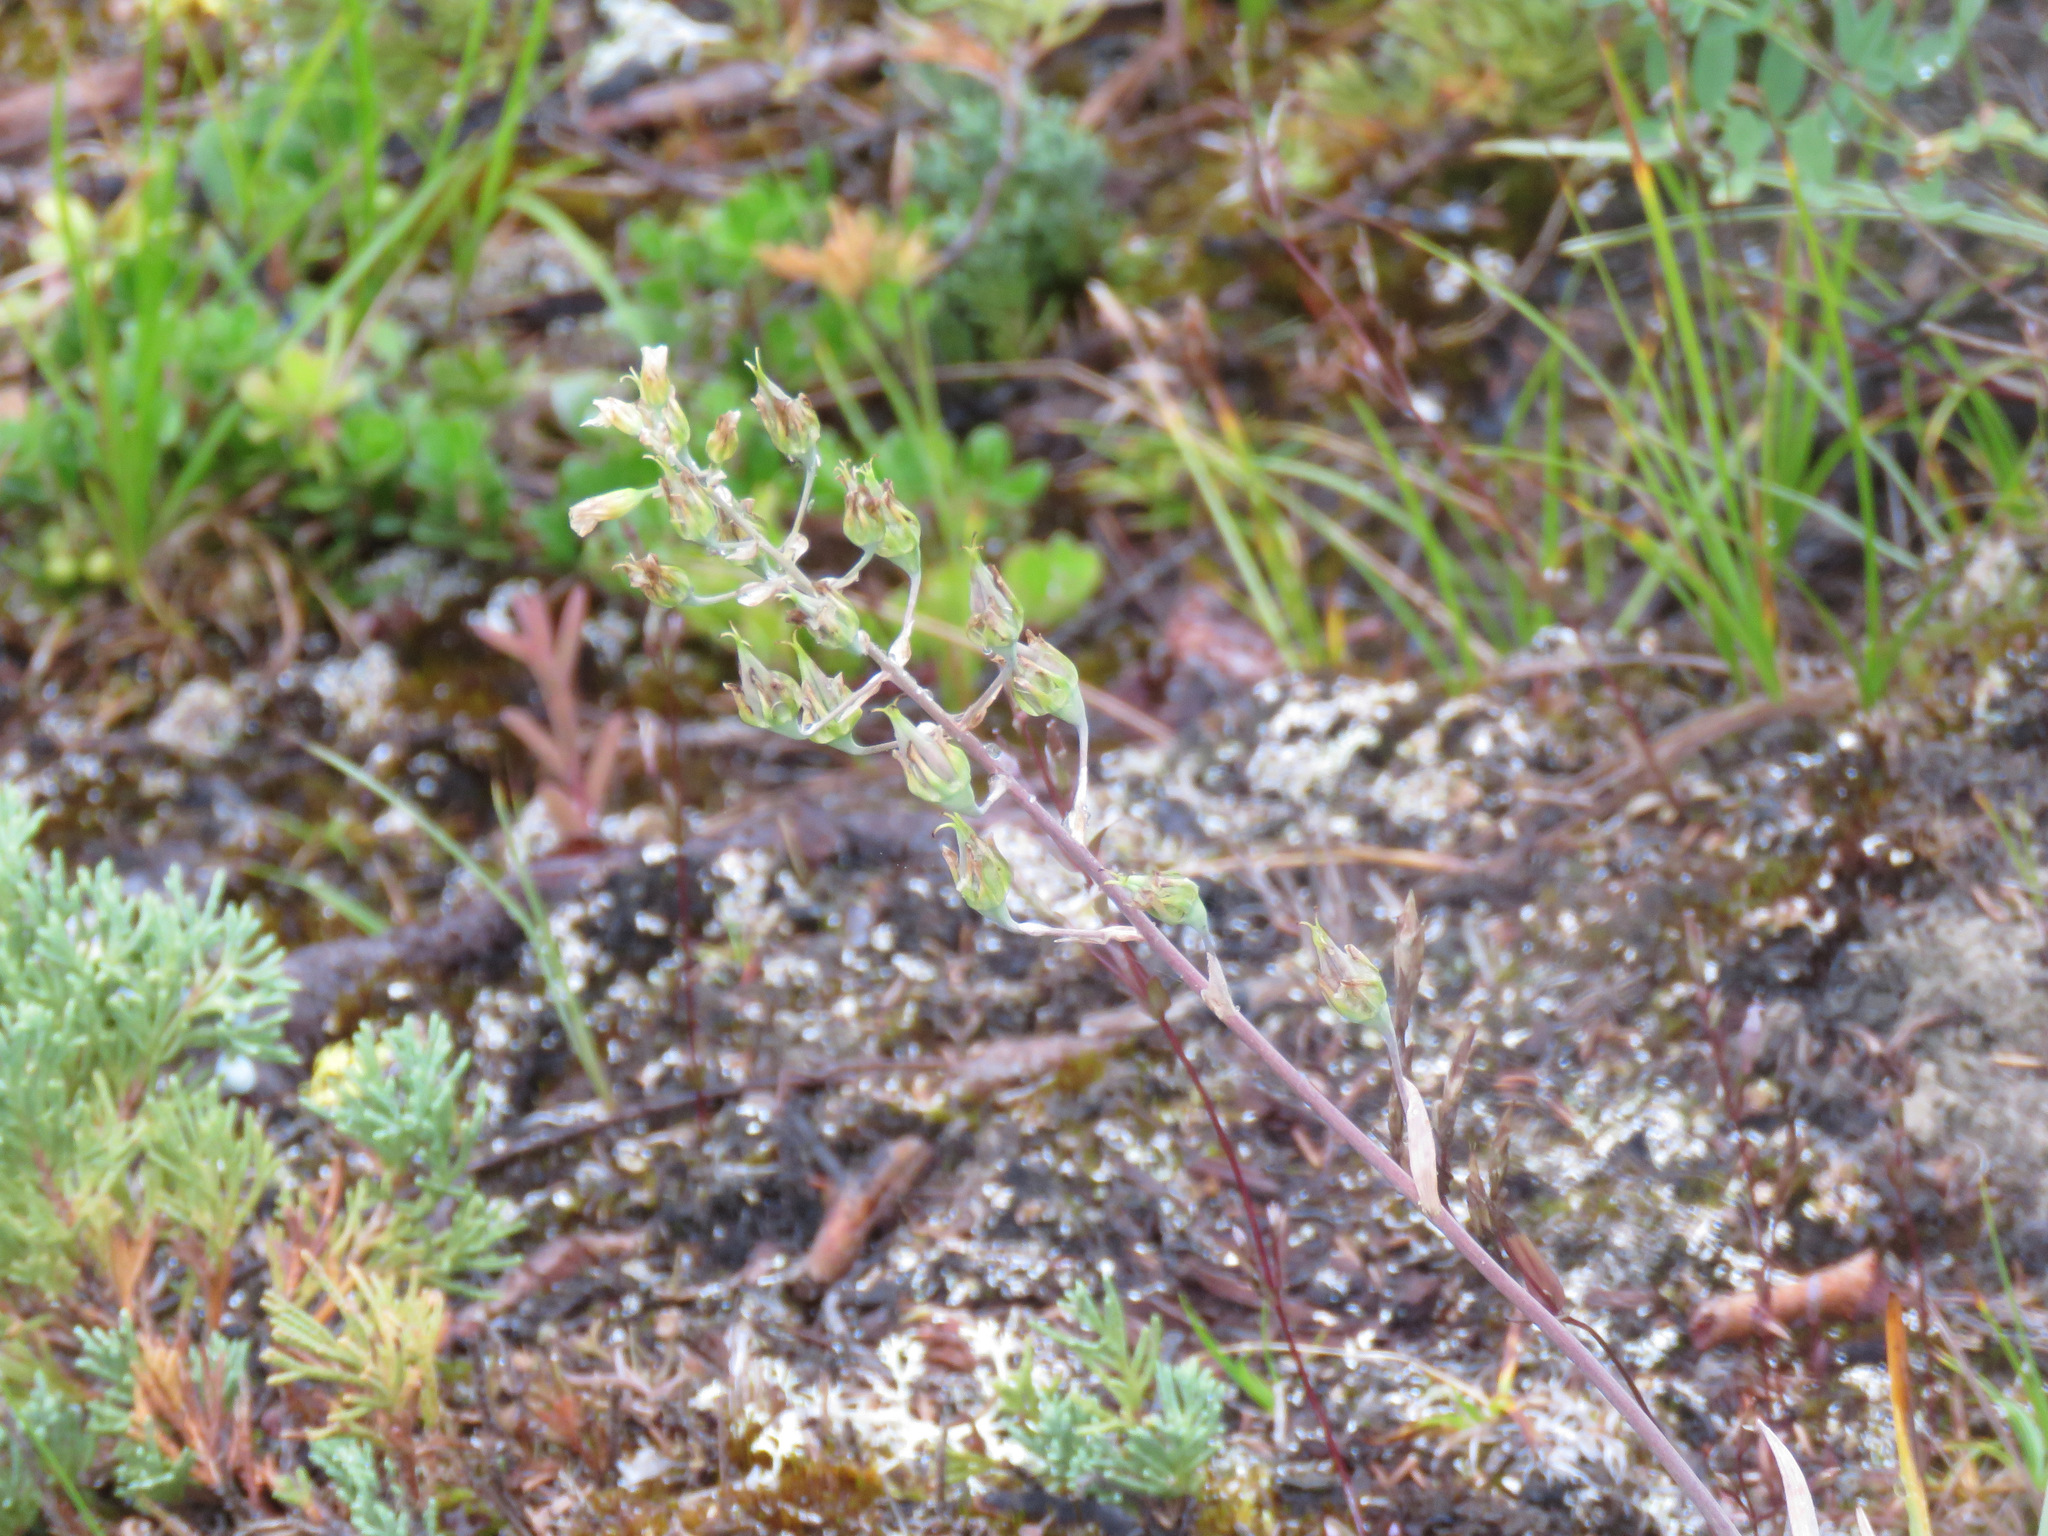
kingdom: Plantae
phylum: Tracheophyta
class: Liliopsida
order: Liliales
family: Melanthiaceae
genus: Anticlea
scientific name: Anticlea elegans
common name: Mountain death camas
